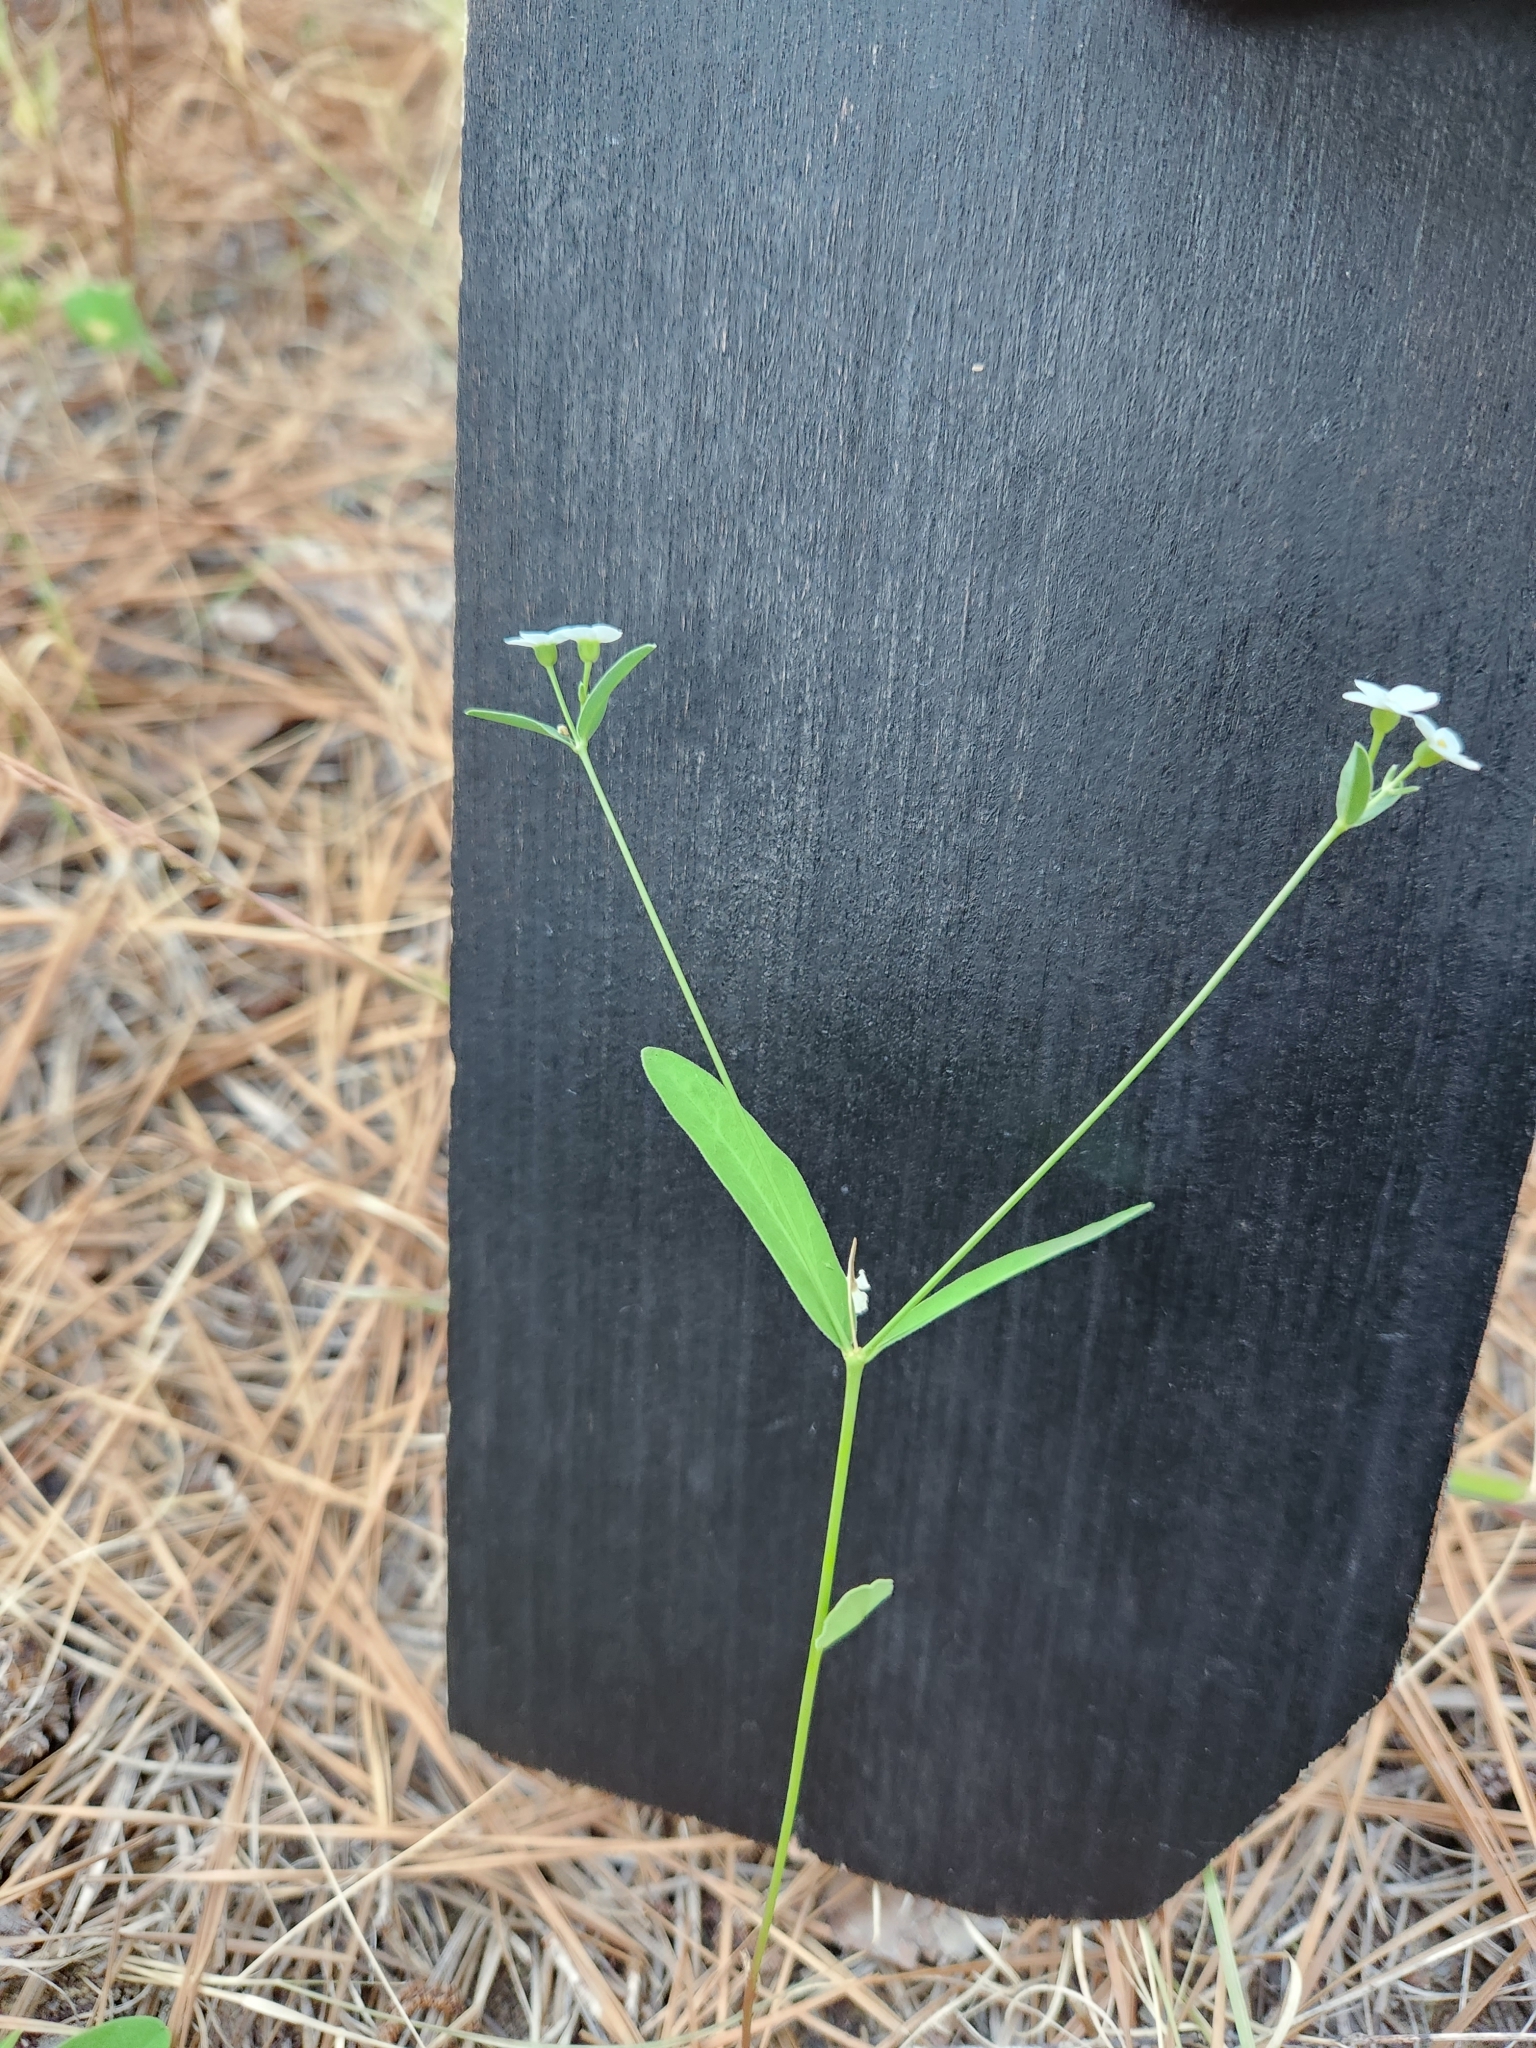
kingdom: Plantae
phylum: Tracheophyta
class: Magnoliopsida
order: Malpighiales
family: Euphorbiaceae
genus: Euphorbia
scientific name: Euphorbia corollata
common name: Flowering spurge
